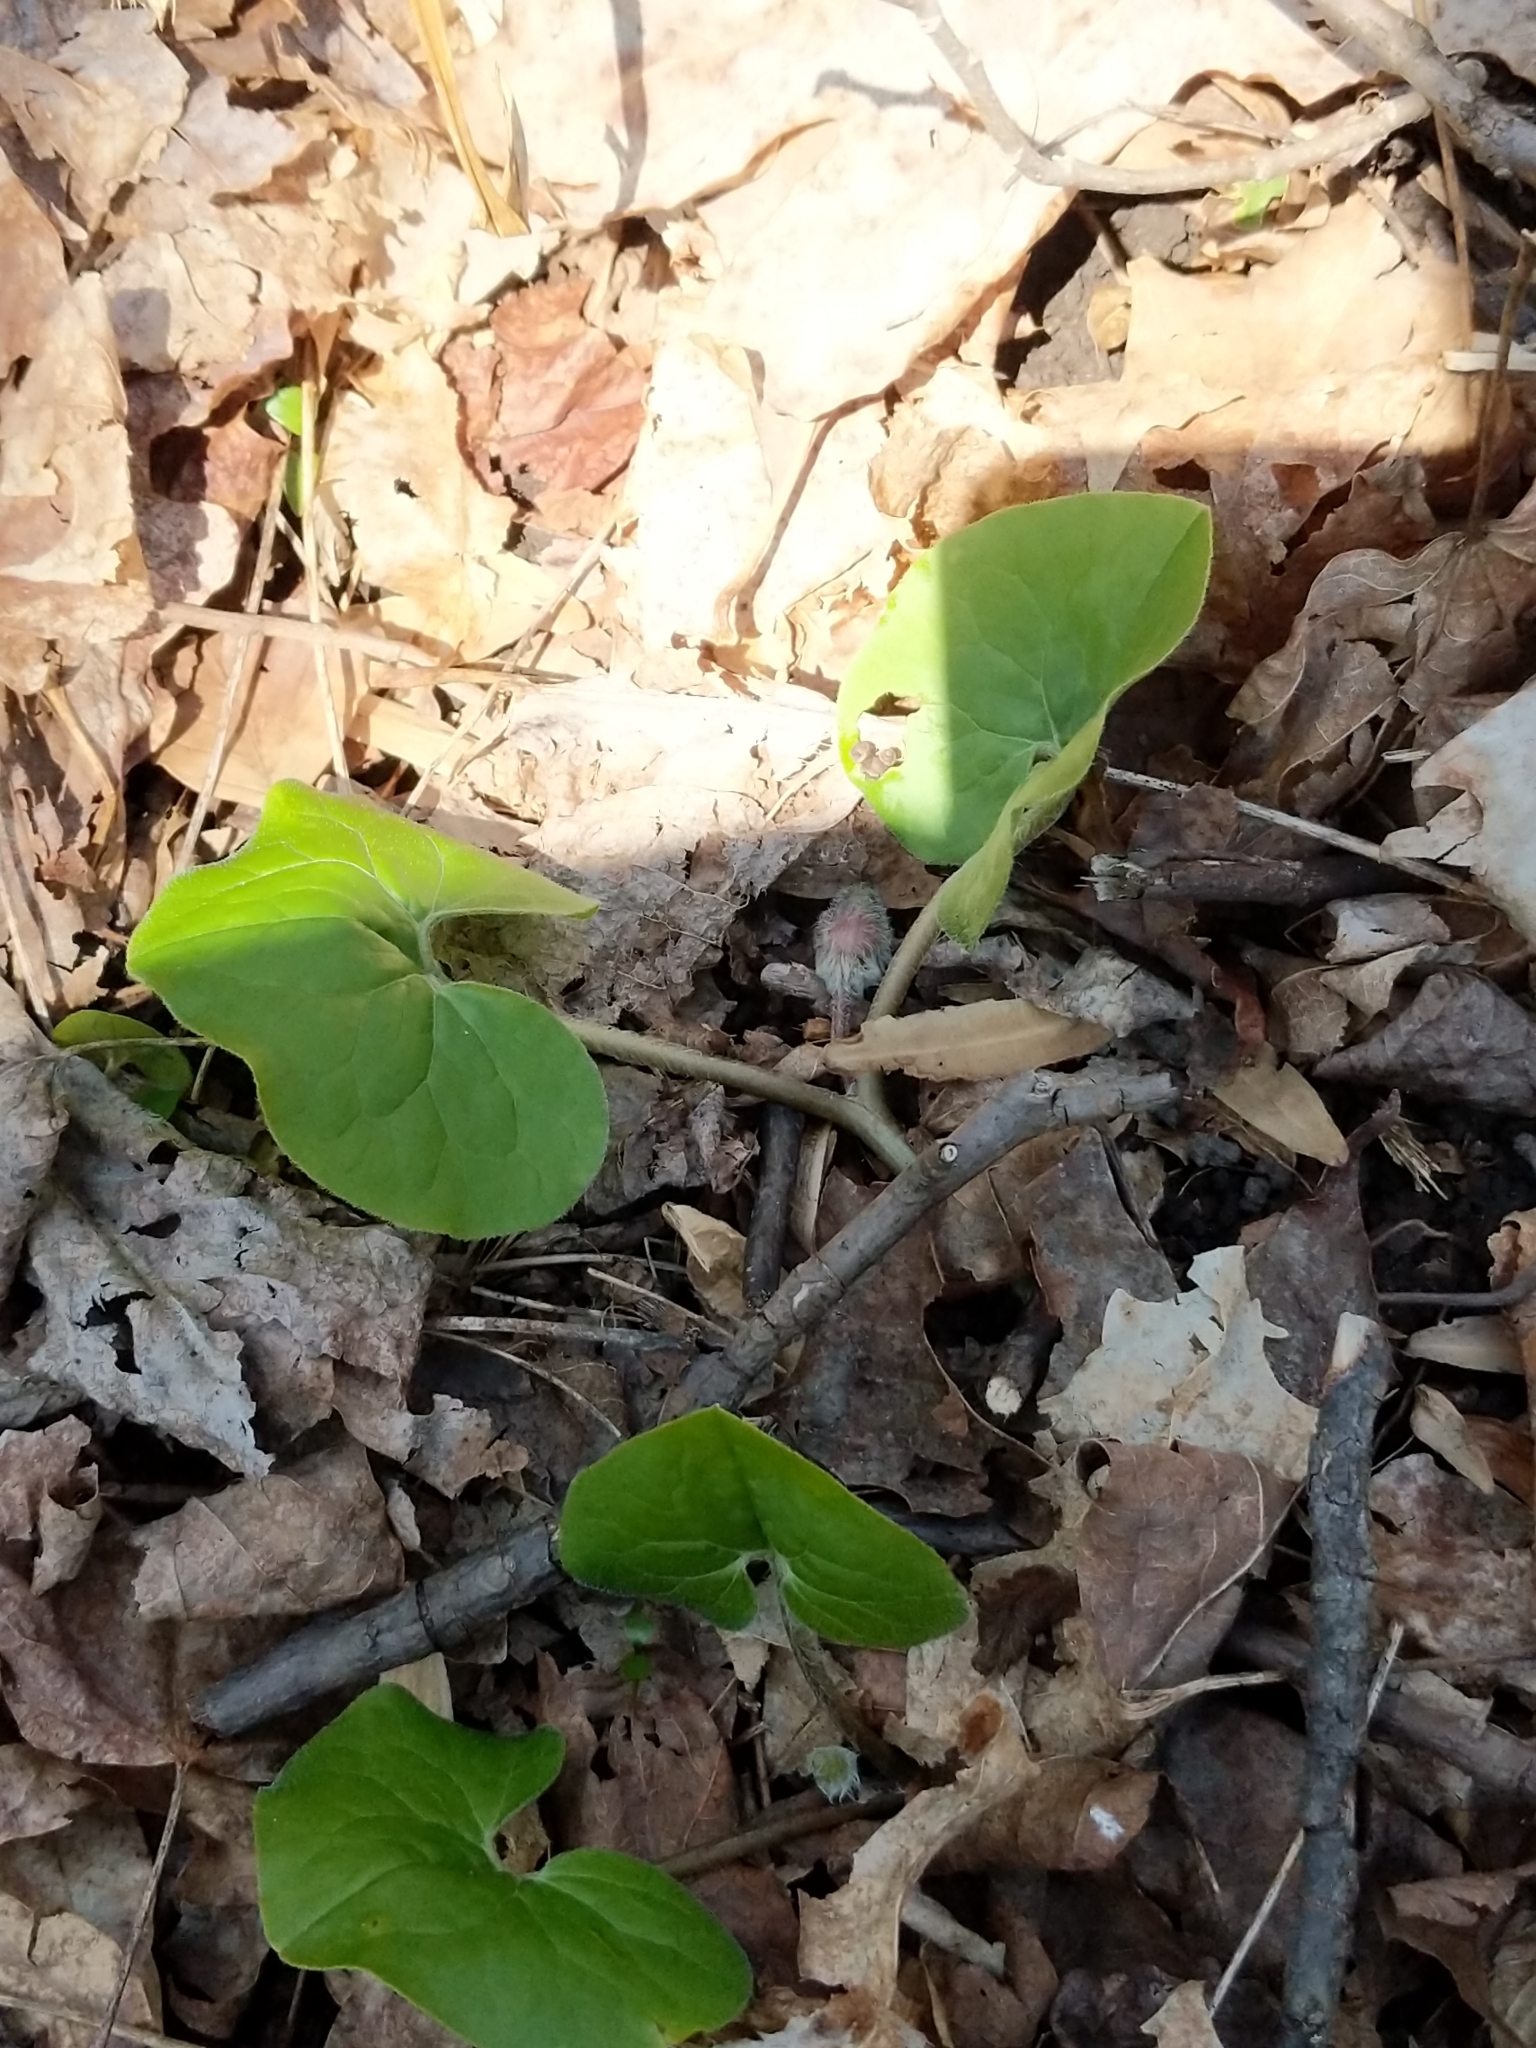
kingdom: Plantae
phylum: Tracheophyta
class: Magnoliopsida
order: Piperales
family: Aristolochiaceae
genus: Asarum
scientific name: Asarum canadense
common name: Wild ginger
